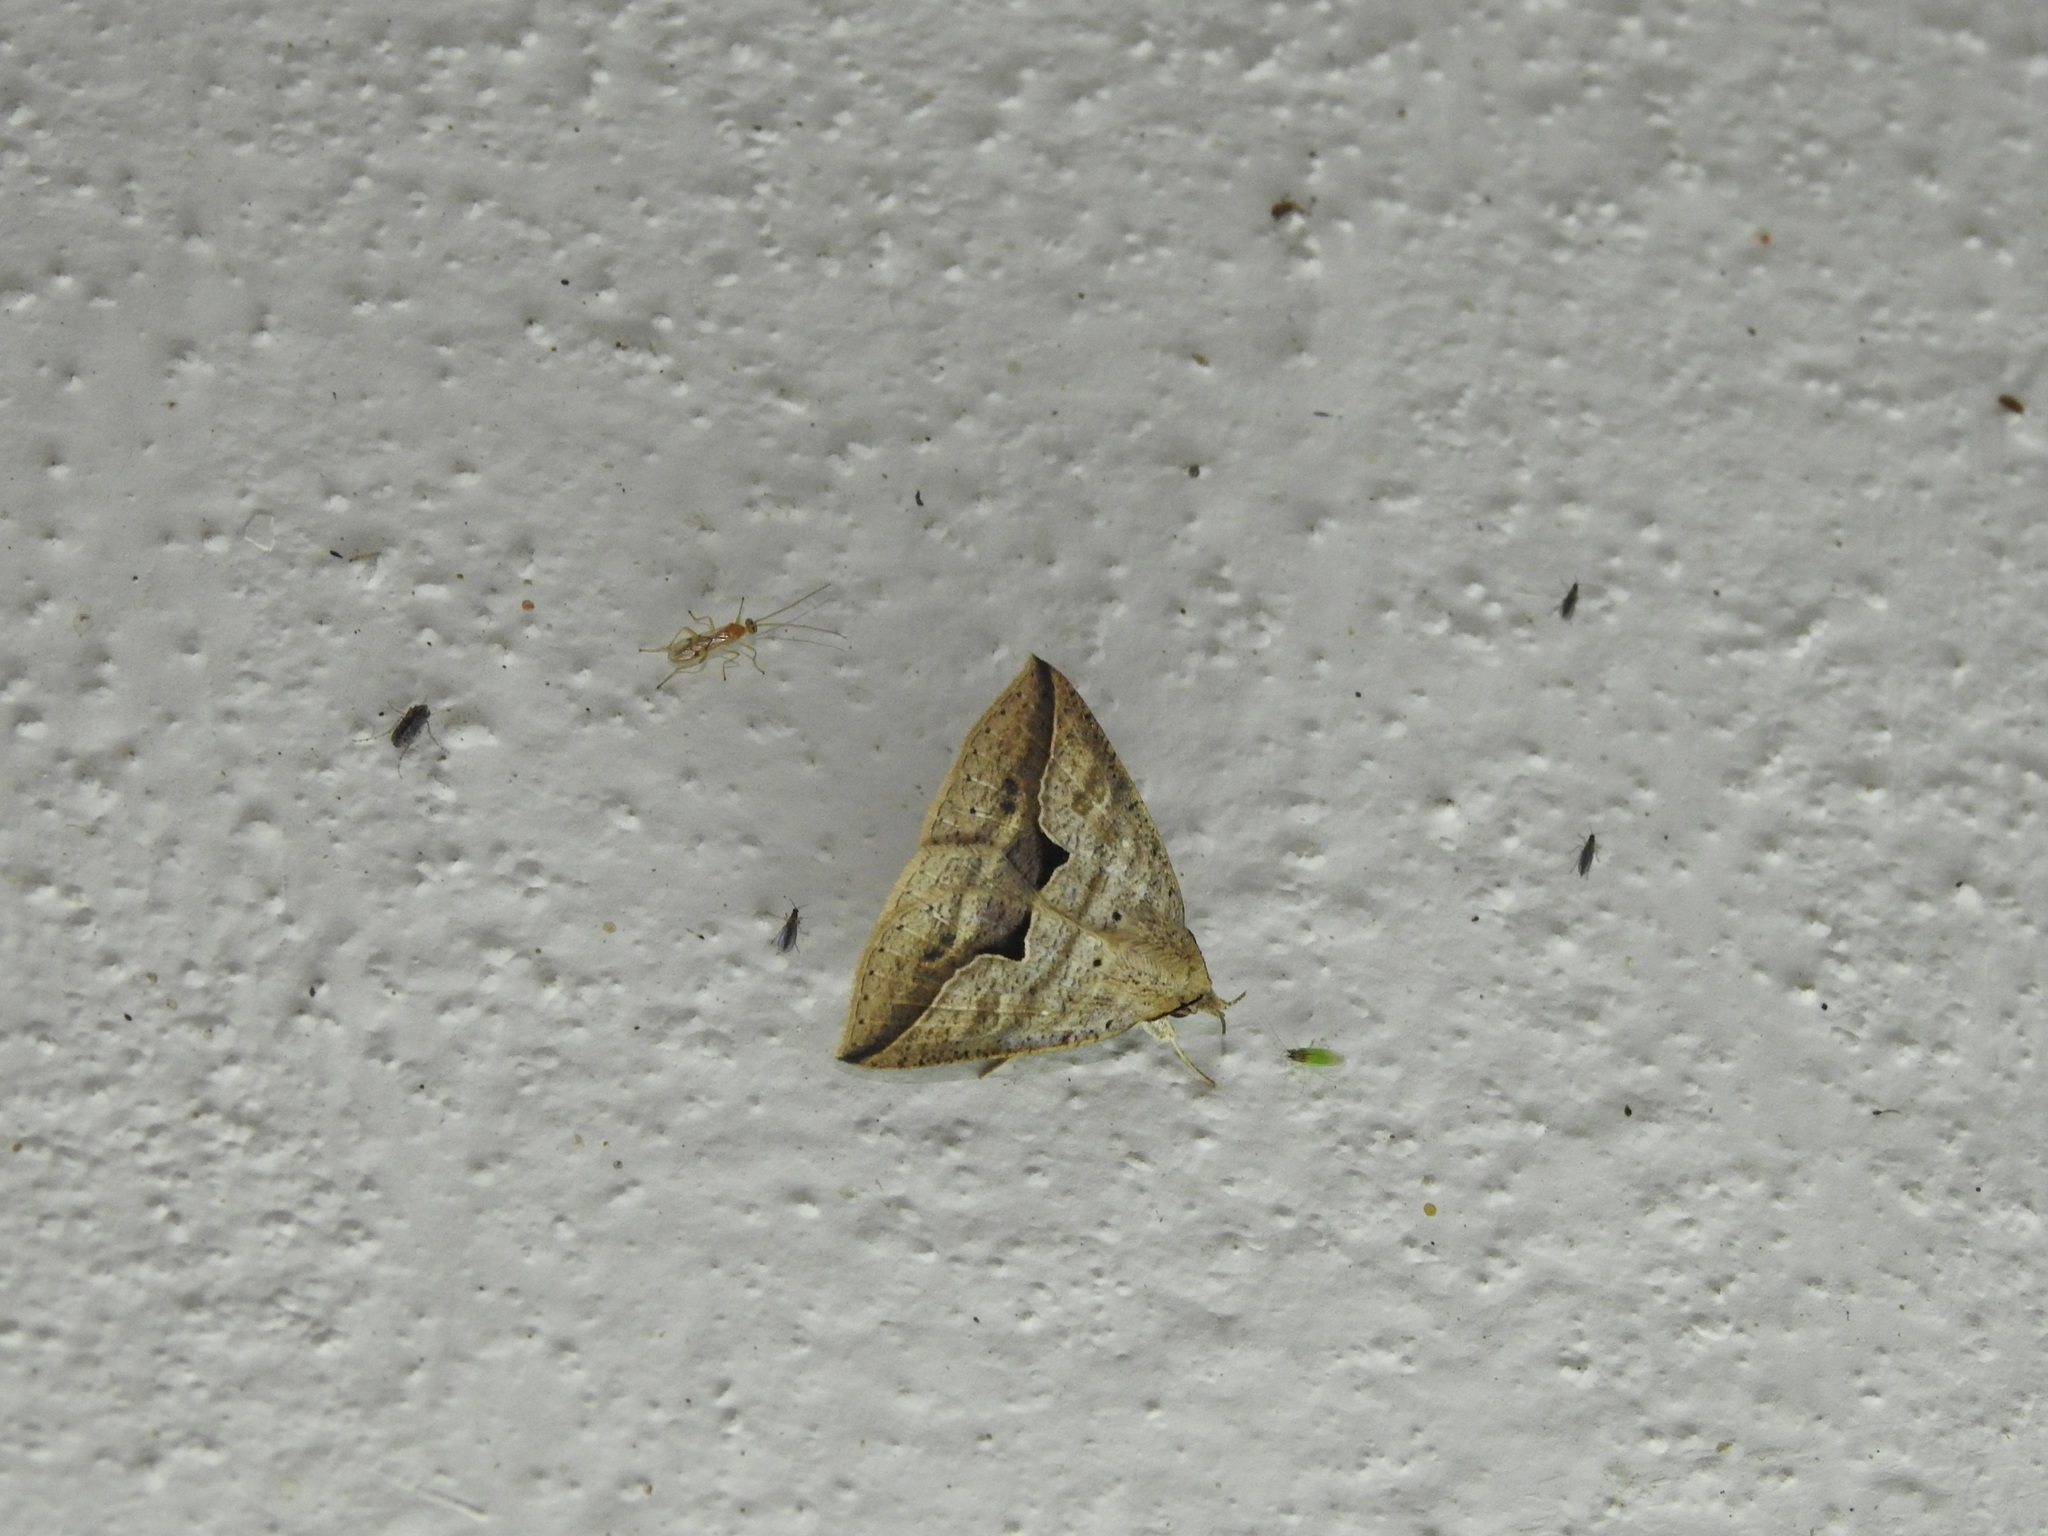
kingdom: Animalia
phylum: Arthropoda
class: Insecta
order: Lepidoptera
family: Erebidae
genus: Dierna
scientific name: Dierna patibulum
